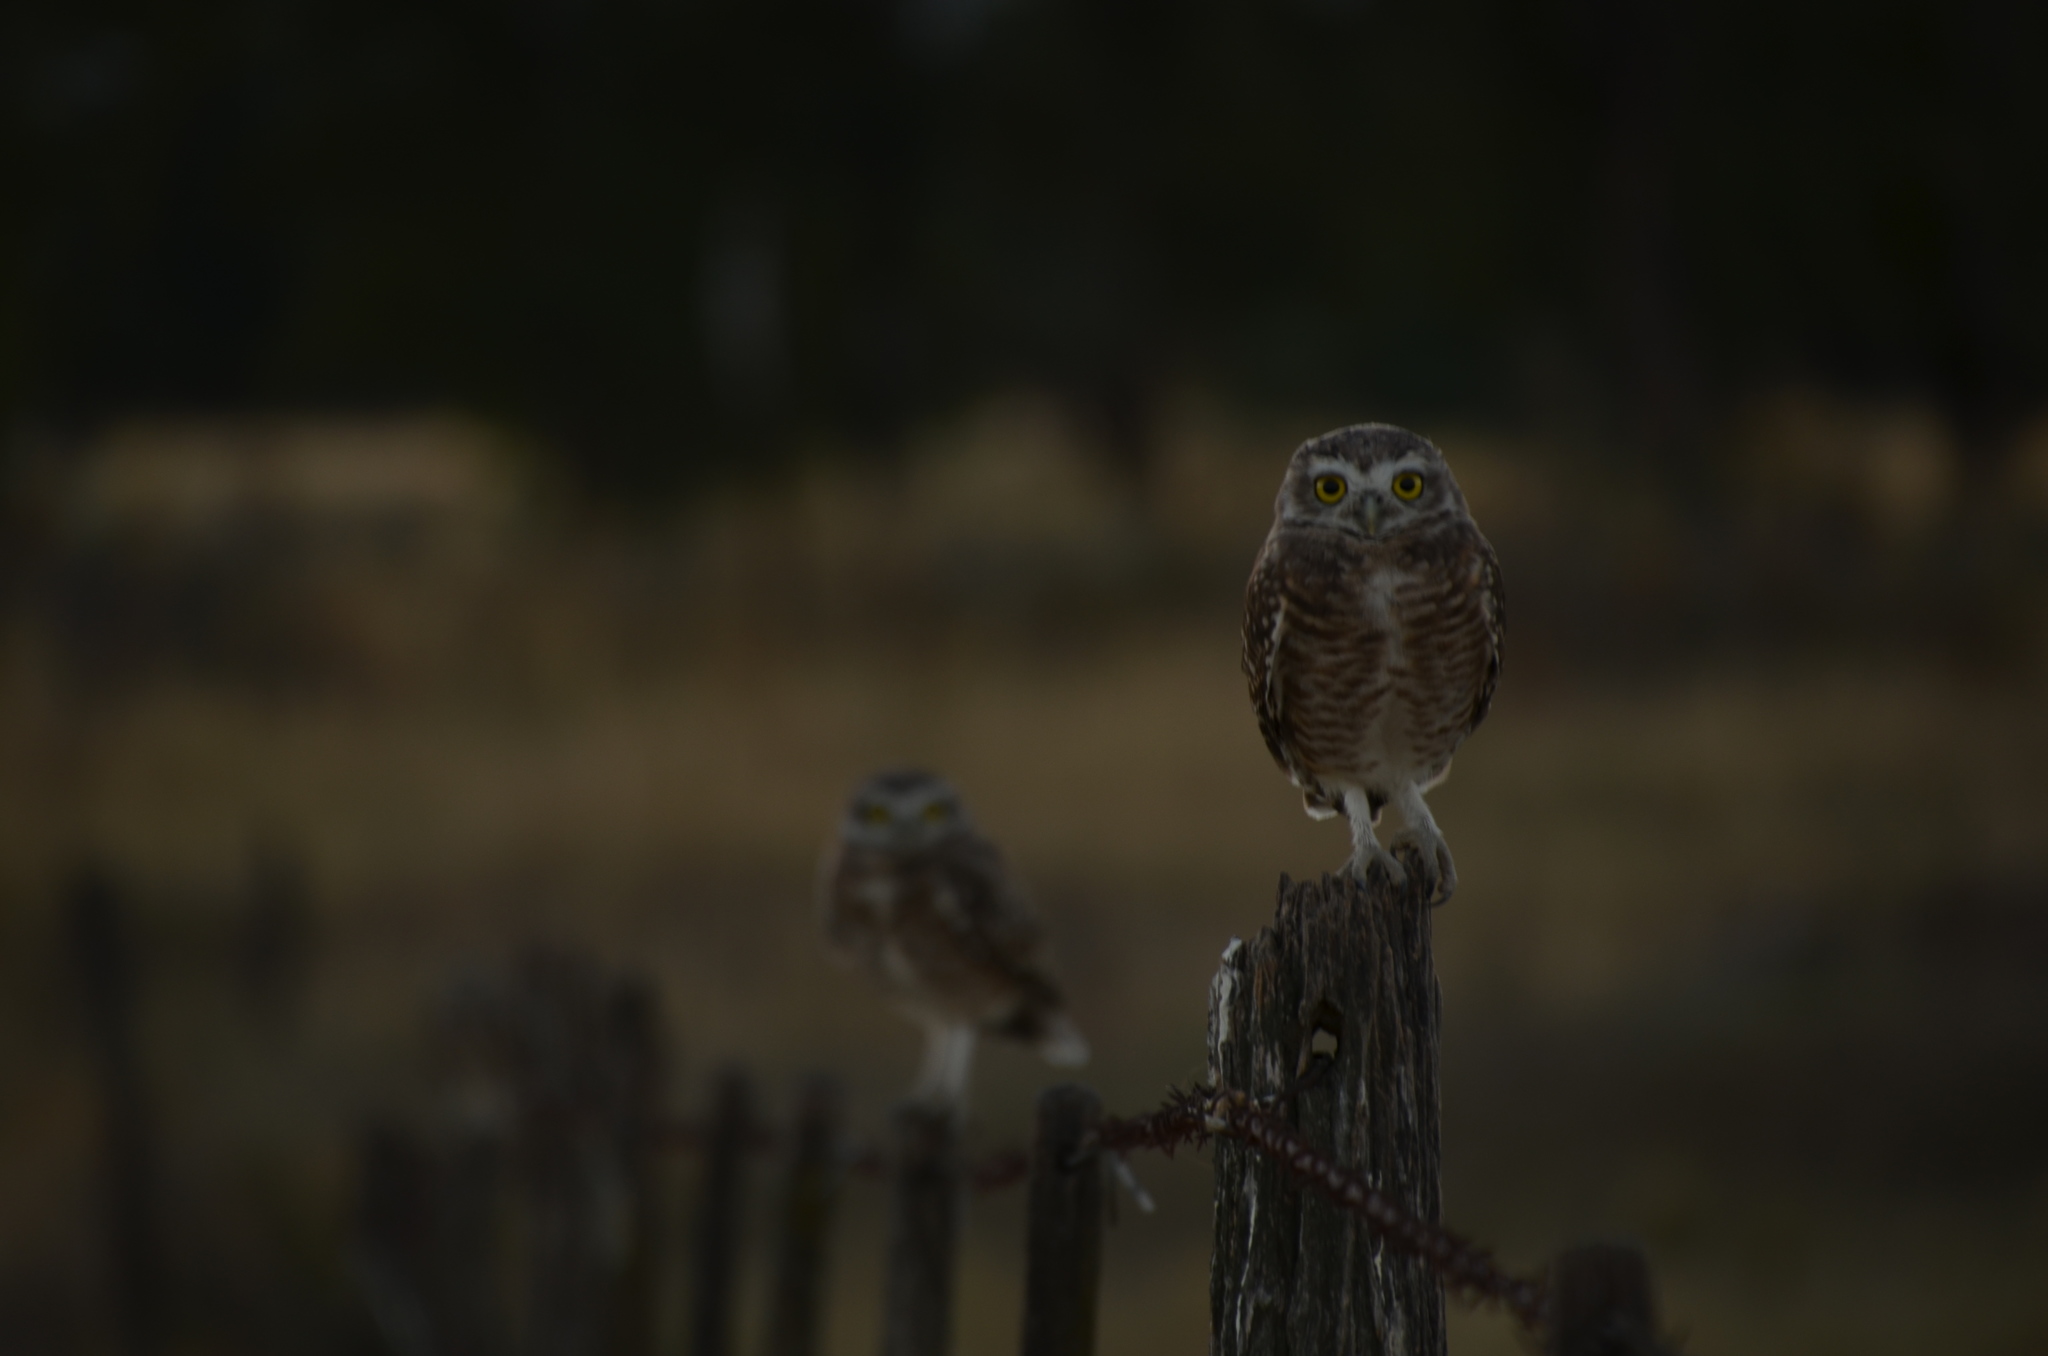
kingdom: Animalia
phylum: Chordata
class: Aves
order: Strigiformes
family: Strigidae
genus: Athene
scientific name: Athene cunicularia
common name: Burrowing owl
